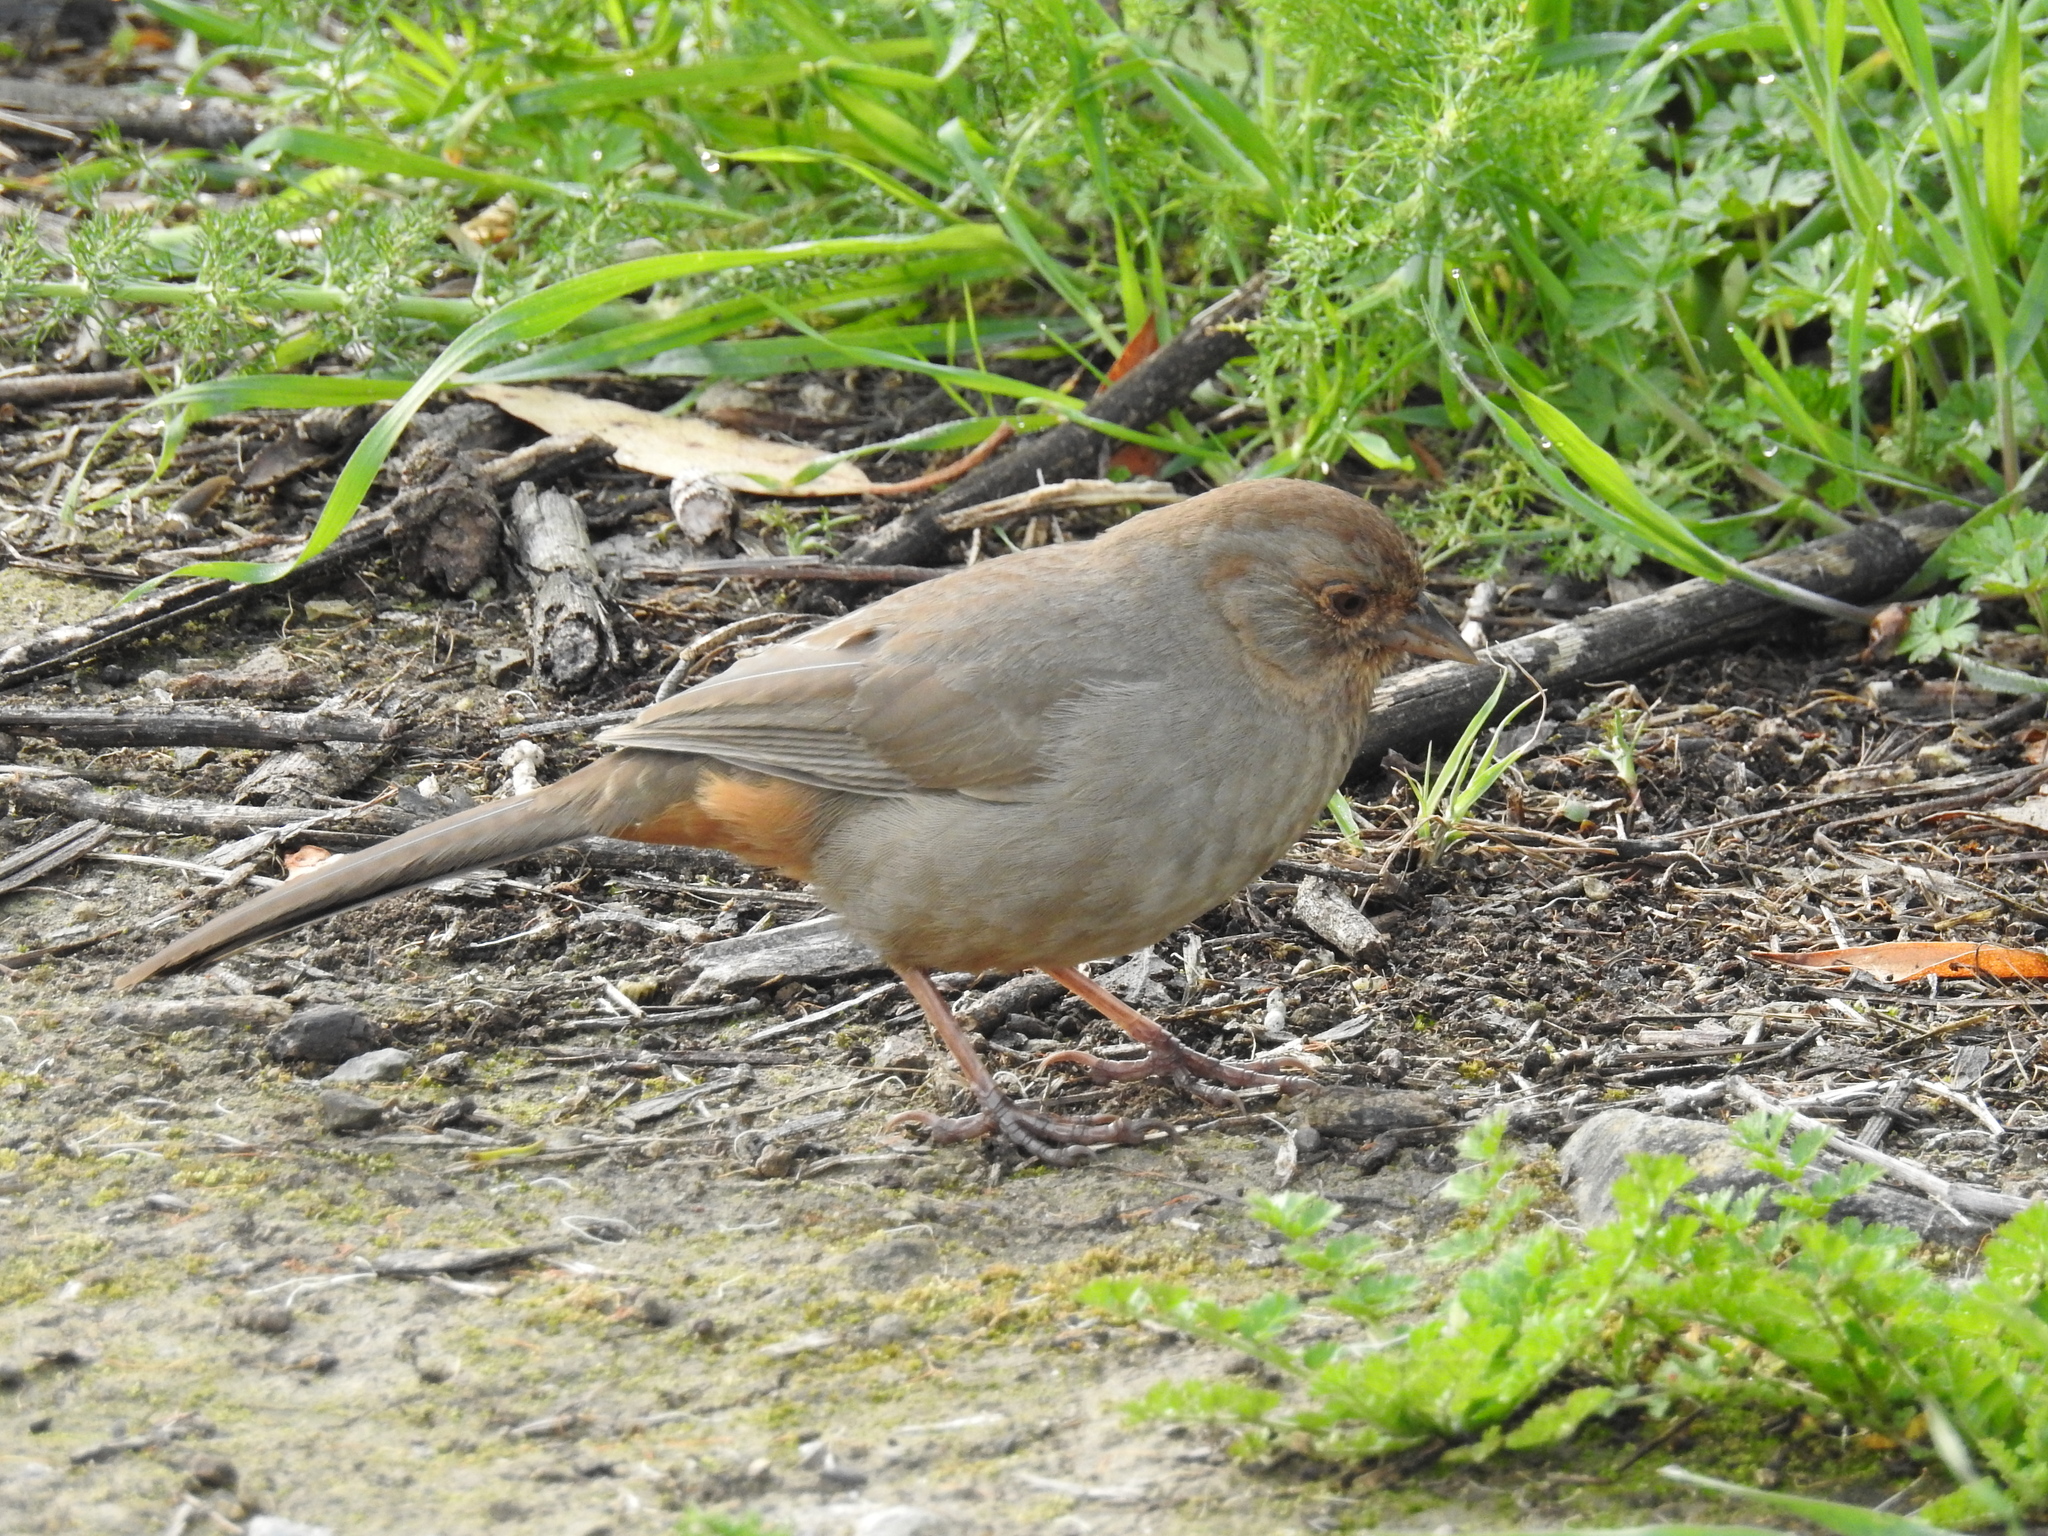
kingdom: Animalia
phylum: Chordata
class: Aves
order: Passeriformes
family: Passerellidae
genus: Melozone
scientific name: Melozone crissalis
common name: California towhee
